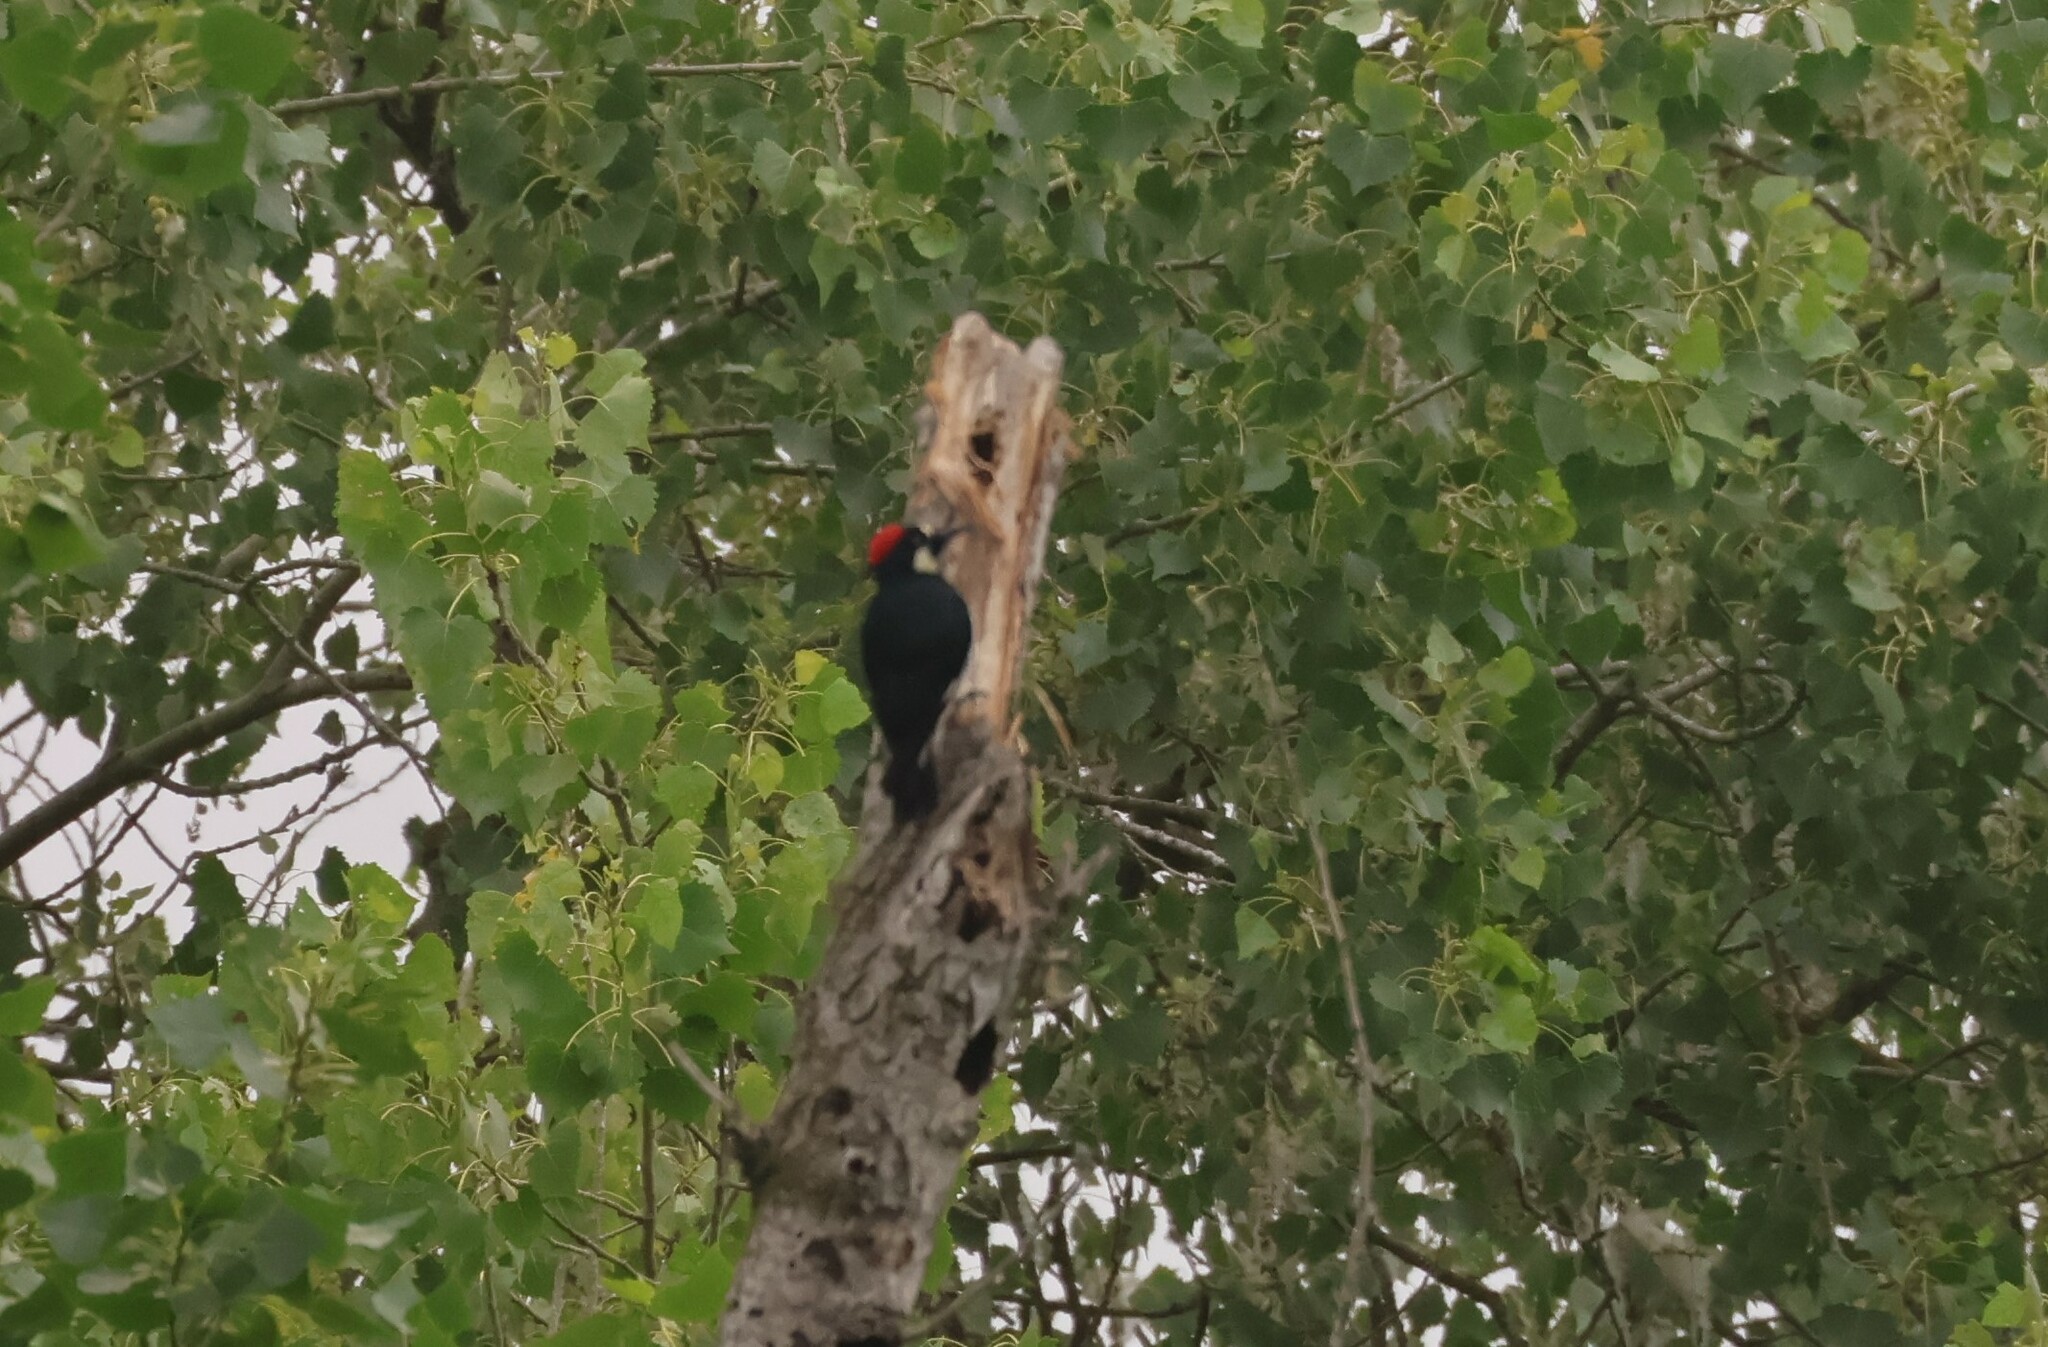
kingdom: Animalia
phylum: Chordata
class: Aves
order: Piciformes
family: Picidae
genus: Melanerpes
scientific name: Melanerpes formicivorus
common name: Acorn woodpecker
